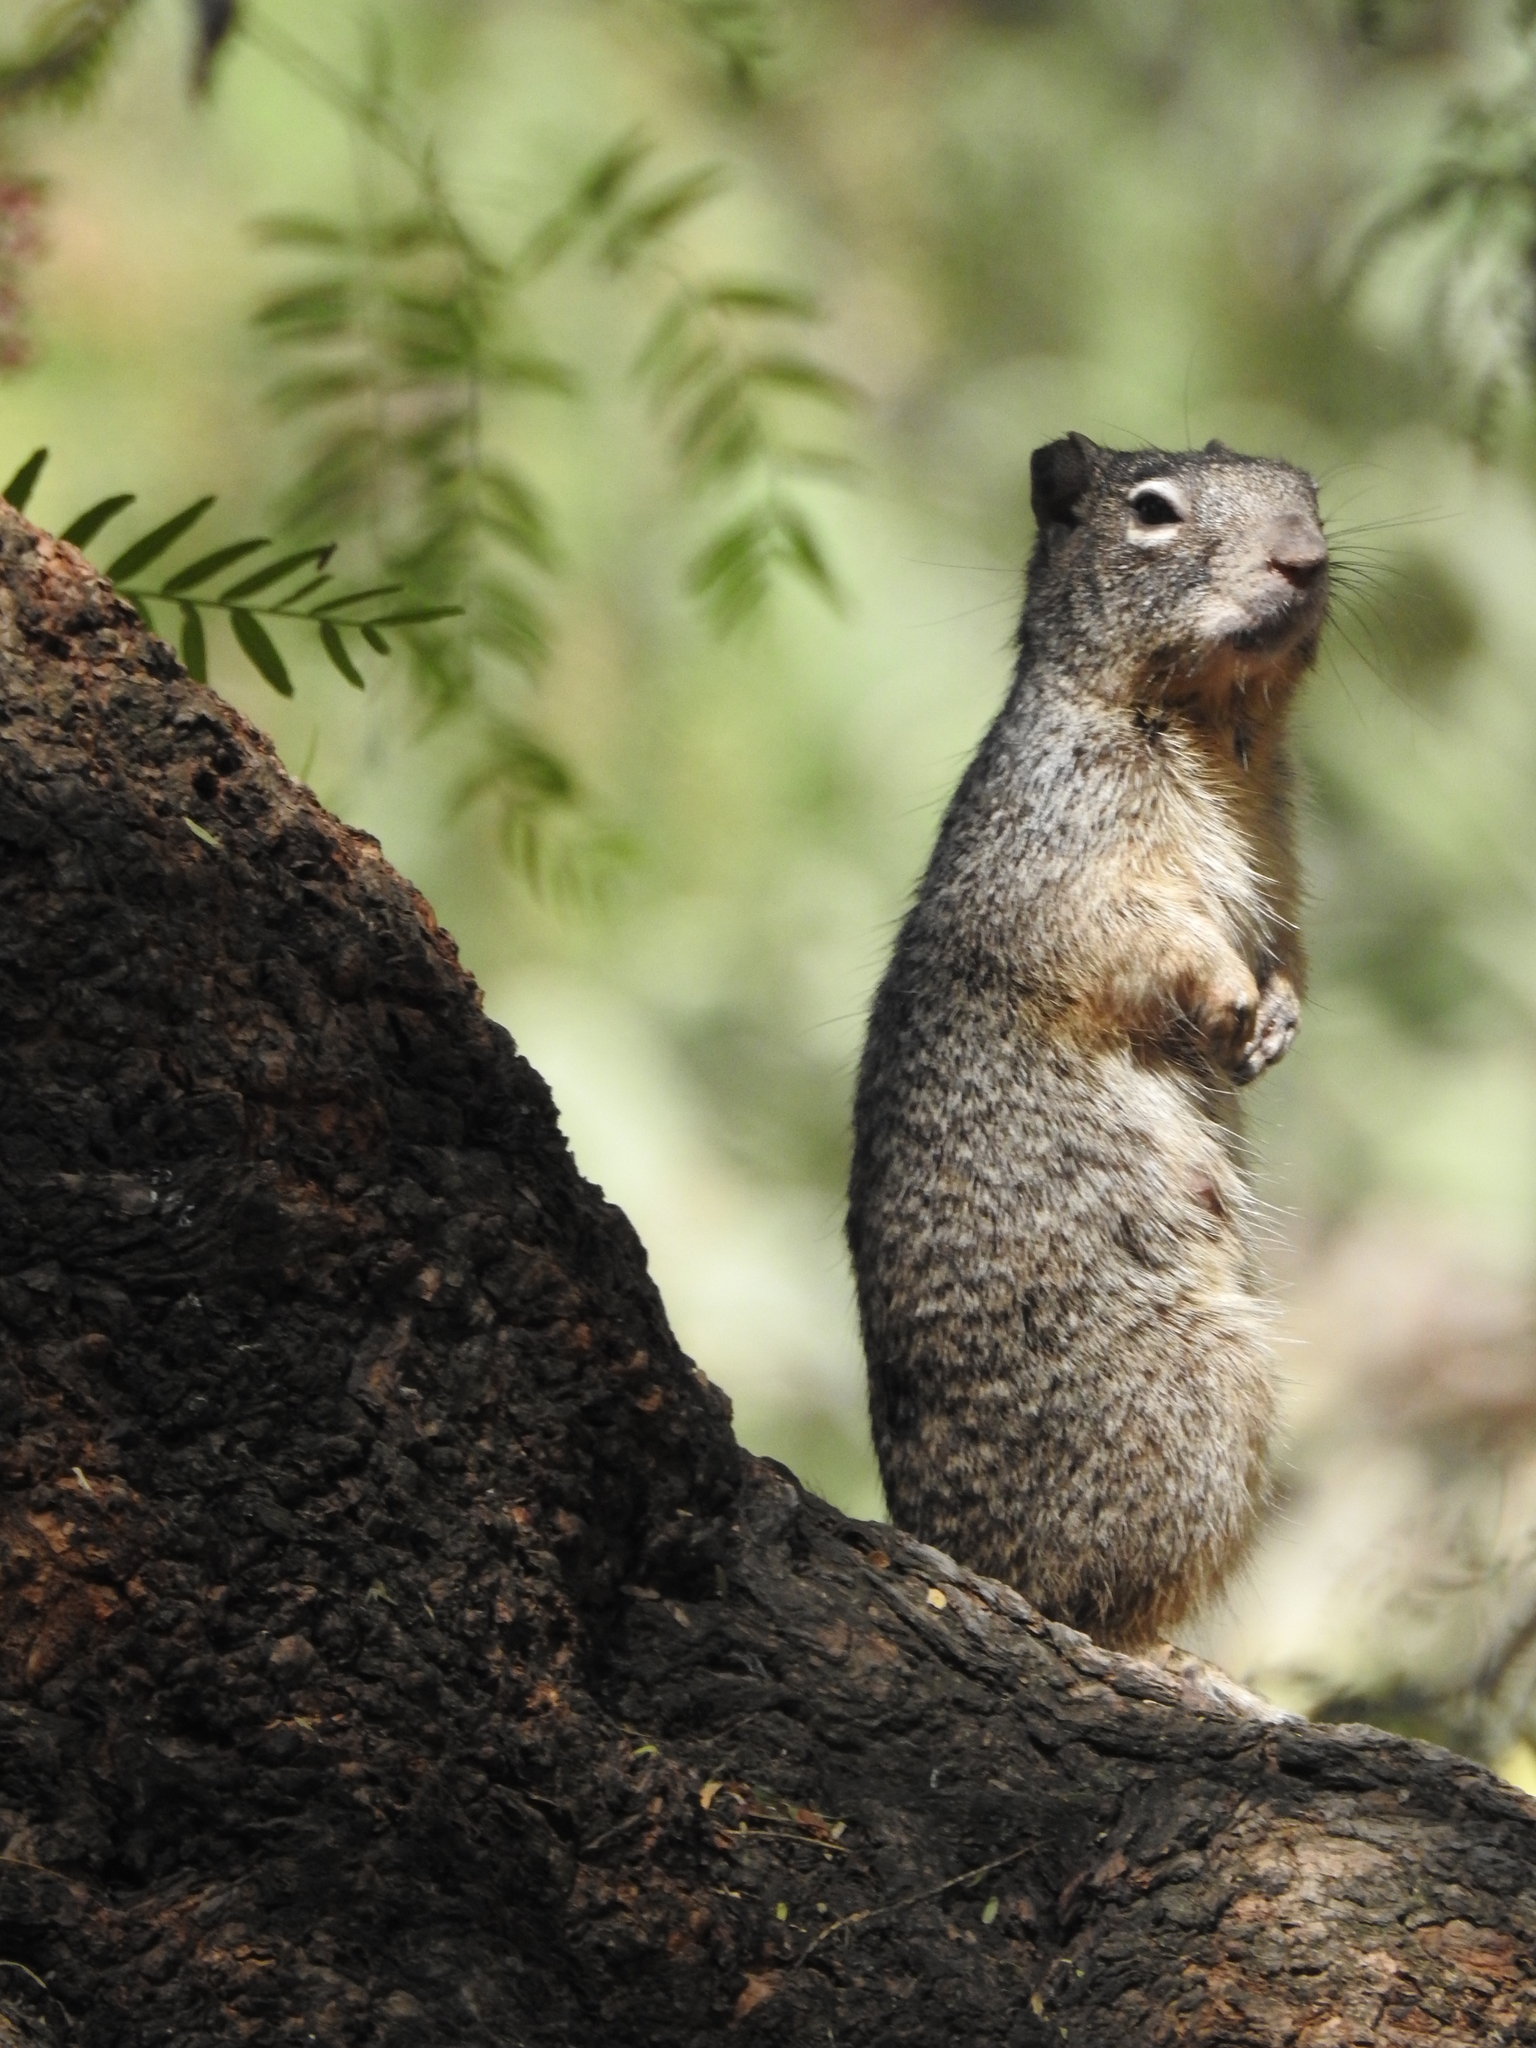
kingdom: Animalia
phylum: Chordata
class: Mammalia
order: Rodentia
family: Sciuridae
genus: Otospermophilus
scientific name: Otospermophilus variegatus
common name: Rock squirrel
